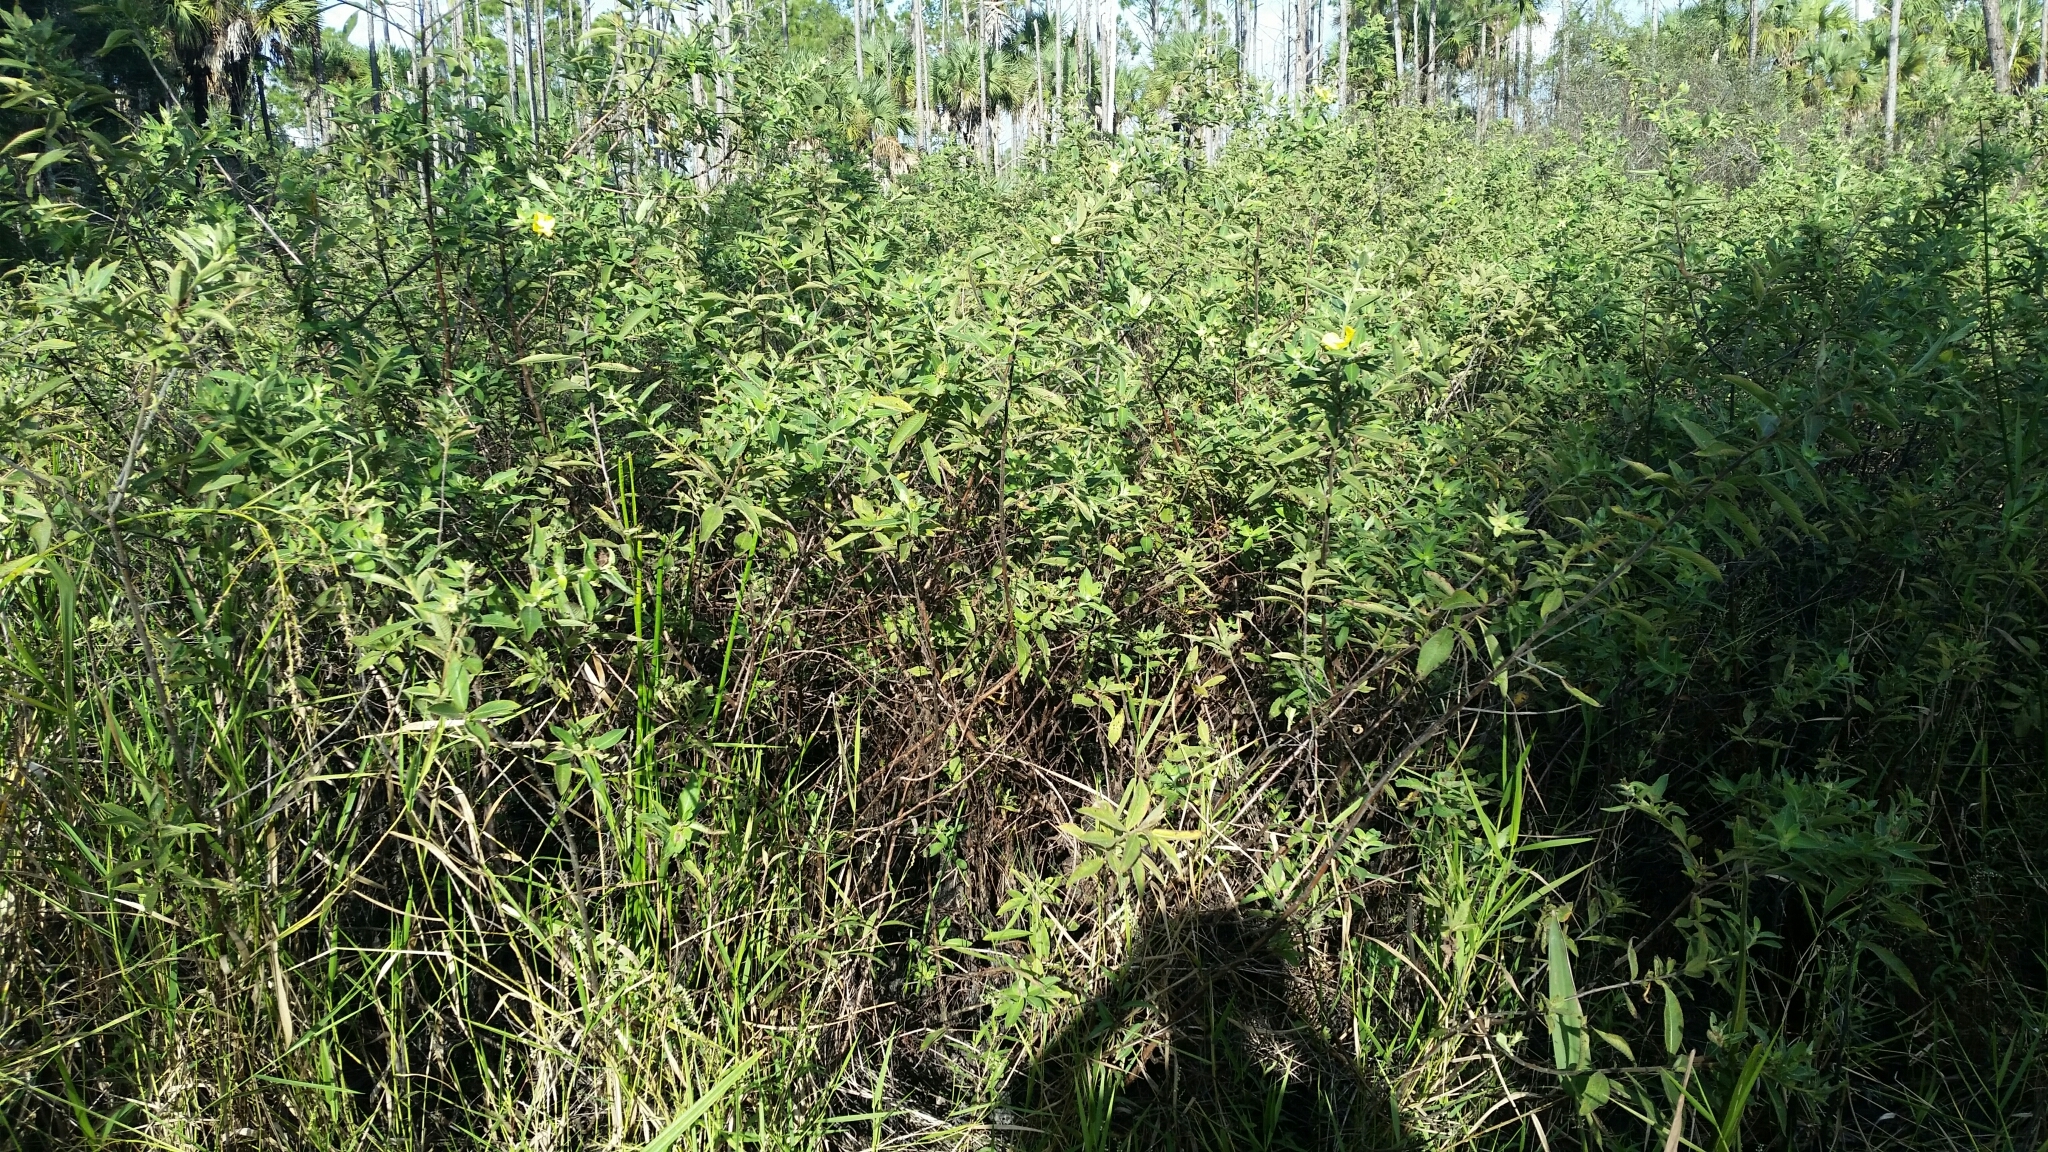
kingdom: Plantae
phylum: Tracheophyta
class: Magnoliopsida
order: Myrtales
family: Onagraceae
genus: Ludwigia
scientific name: Ludwigia peruviana
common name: Peruvian primrose-willow
